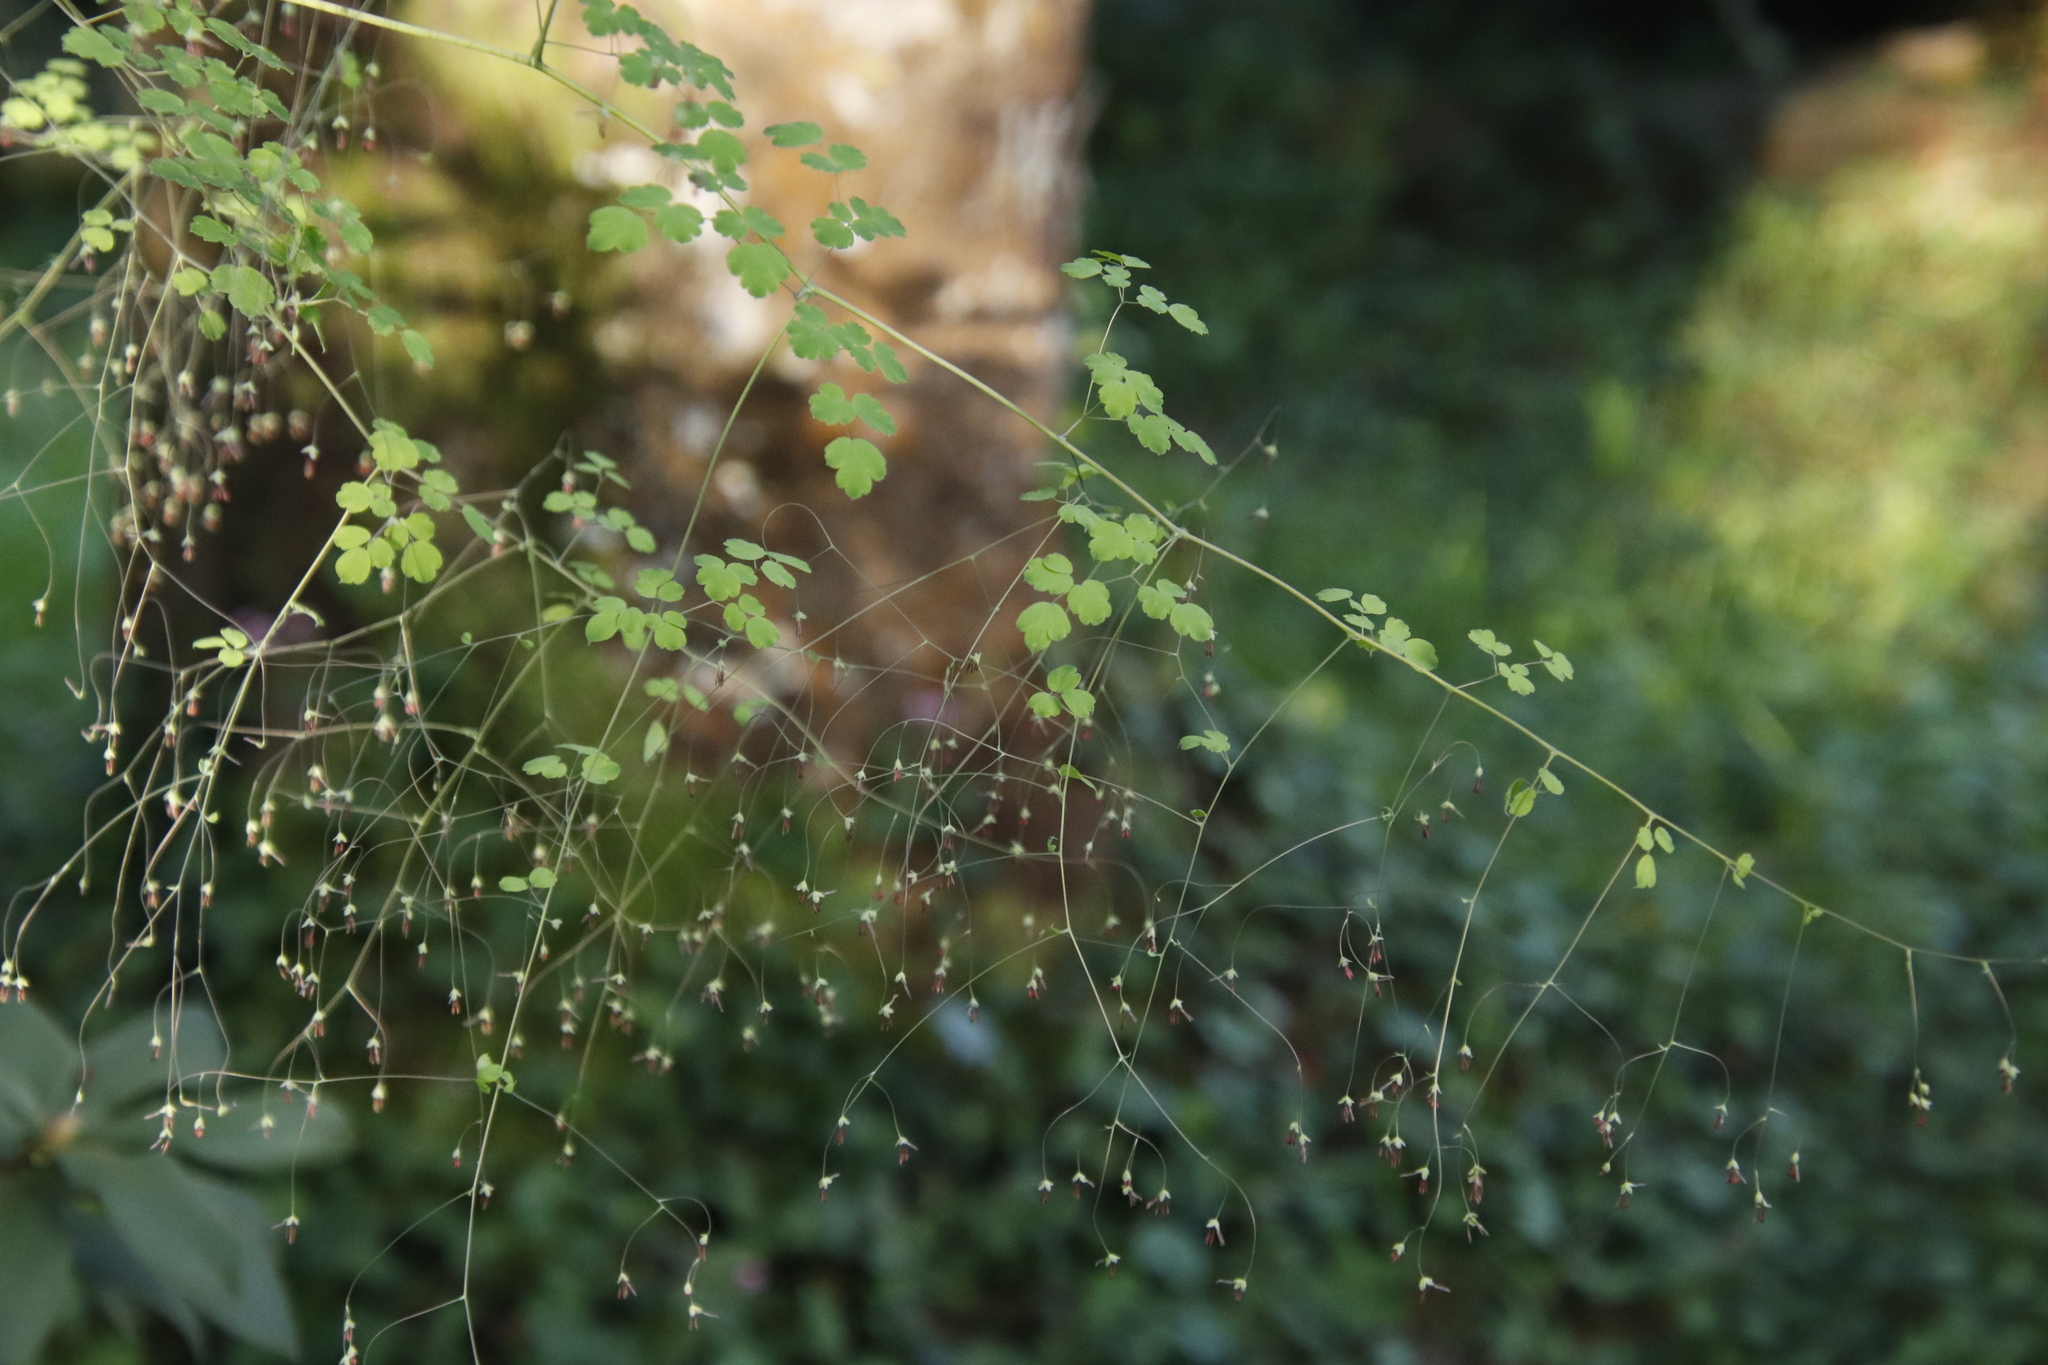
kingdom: Plantae
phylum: Tracheophyta
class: Magnoliopsida
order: Ranunculales
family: Ranunculaceae
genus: Thalictrum
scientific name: Thalictrum rhynchocarpum
